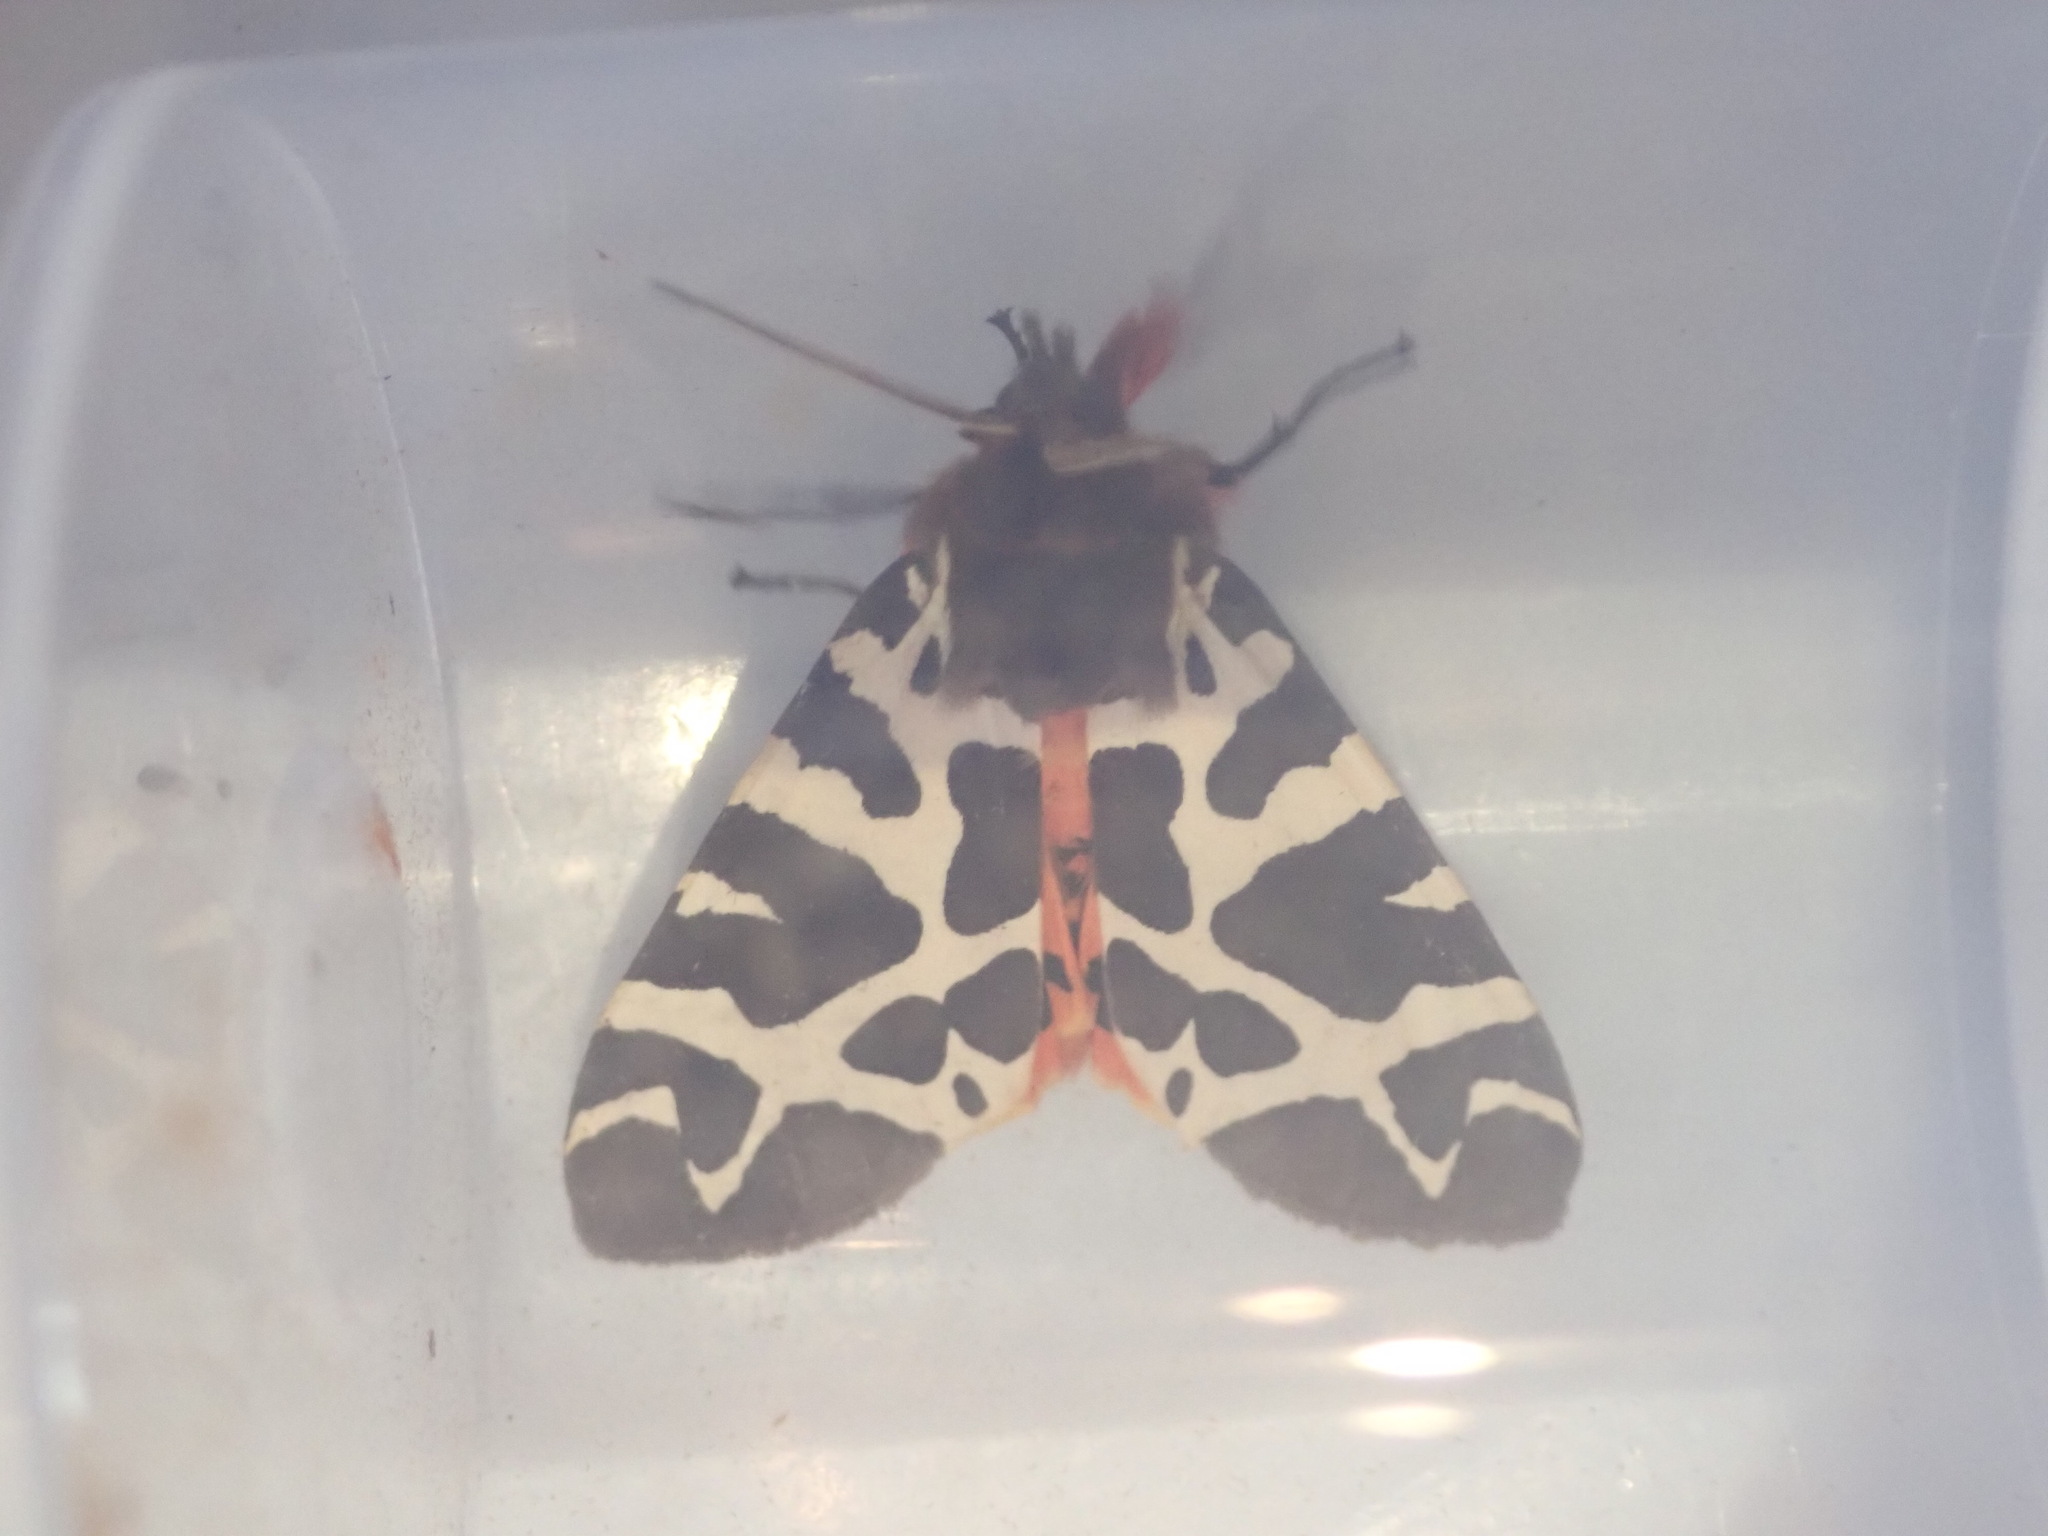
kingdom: Animalia
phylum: Arthropoda
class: Insecta
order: Lepidoptera
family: Erebidae
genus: Arctia
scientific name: Arctia caja
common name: Garden tiger
